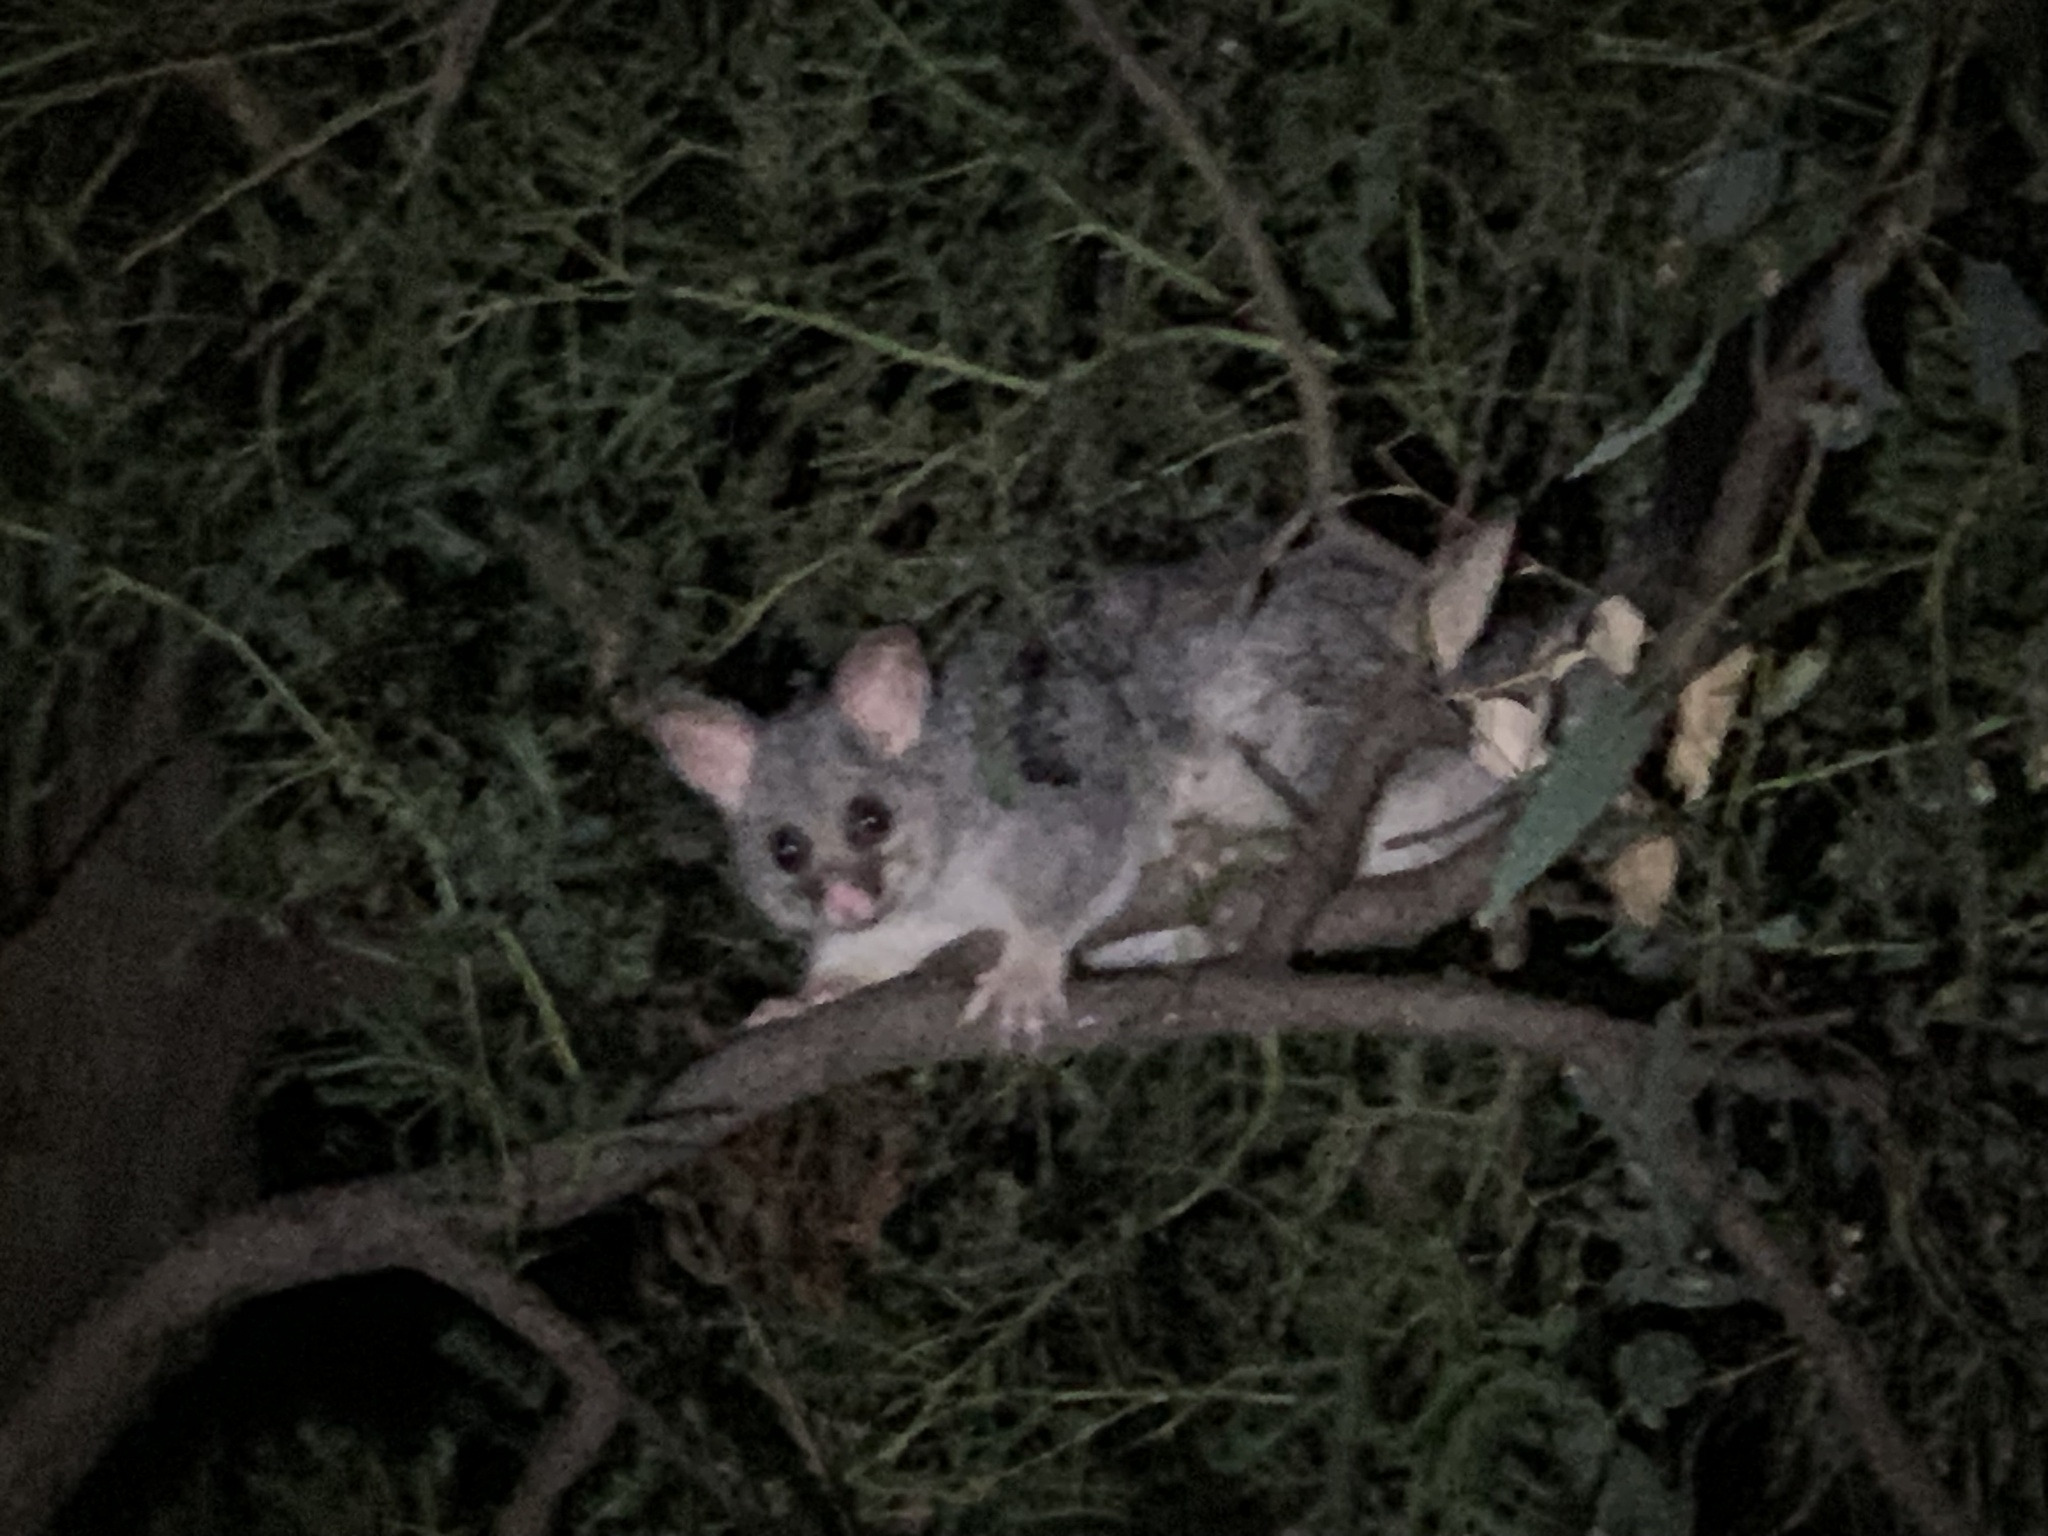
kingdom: Animalia
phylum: Chordata
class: Mammalia
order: Diprotodontia
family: Phalangeridae
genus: Trichosurus
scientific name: Trichosurus vulpecula
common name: Common brushtail
